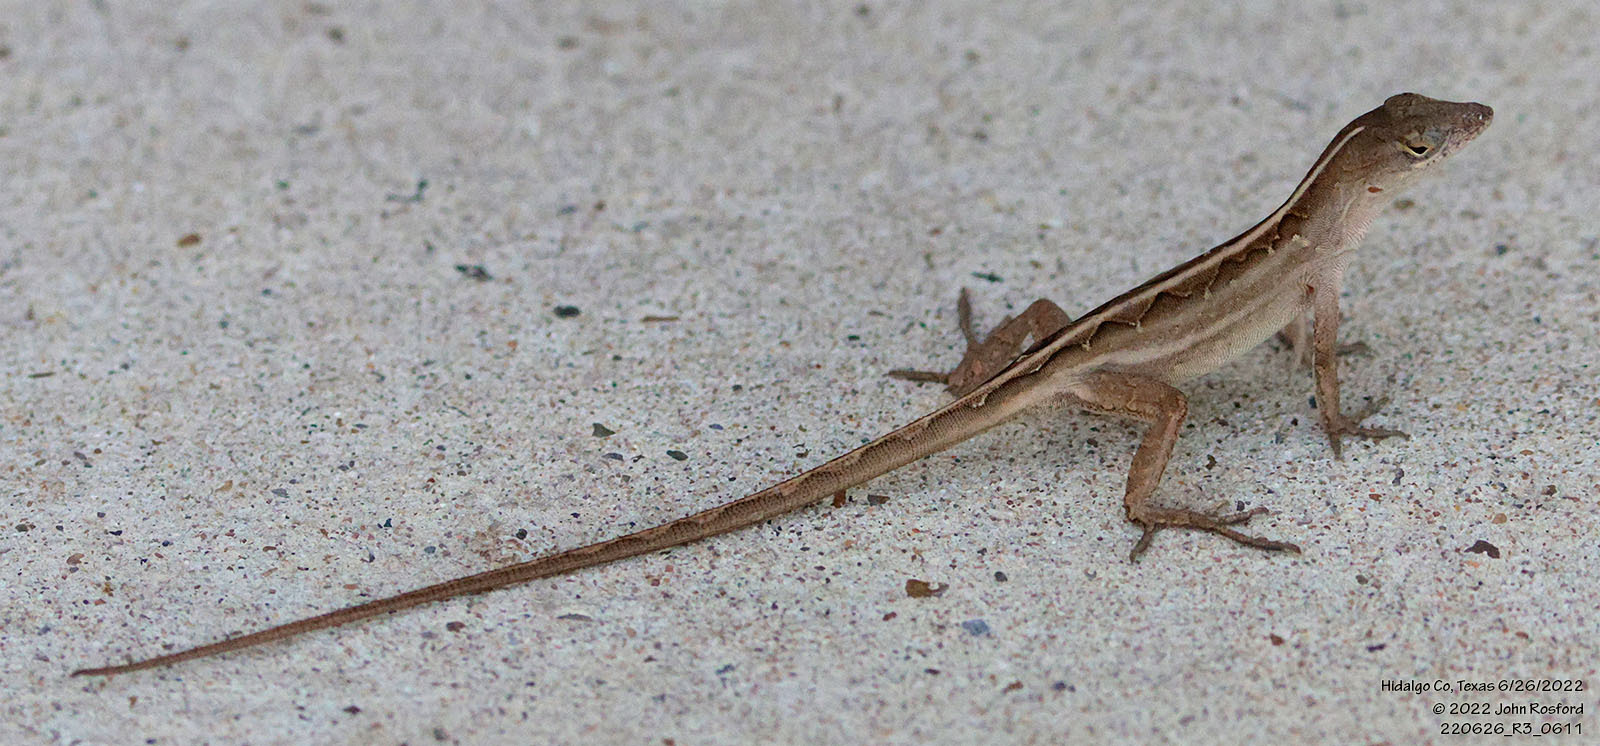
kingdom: Animalia
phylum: Chordata
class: Squamata
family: Dactyloidae
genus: Anolis
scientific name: Anolis sagrei
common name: Brown anole
